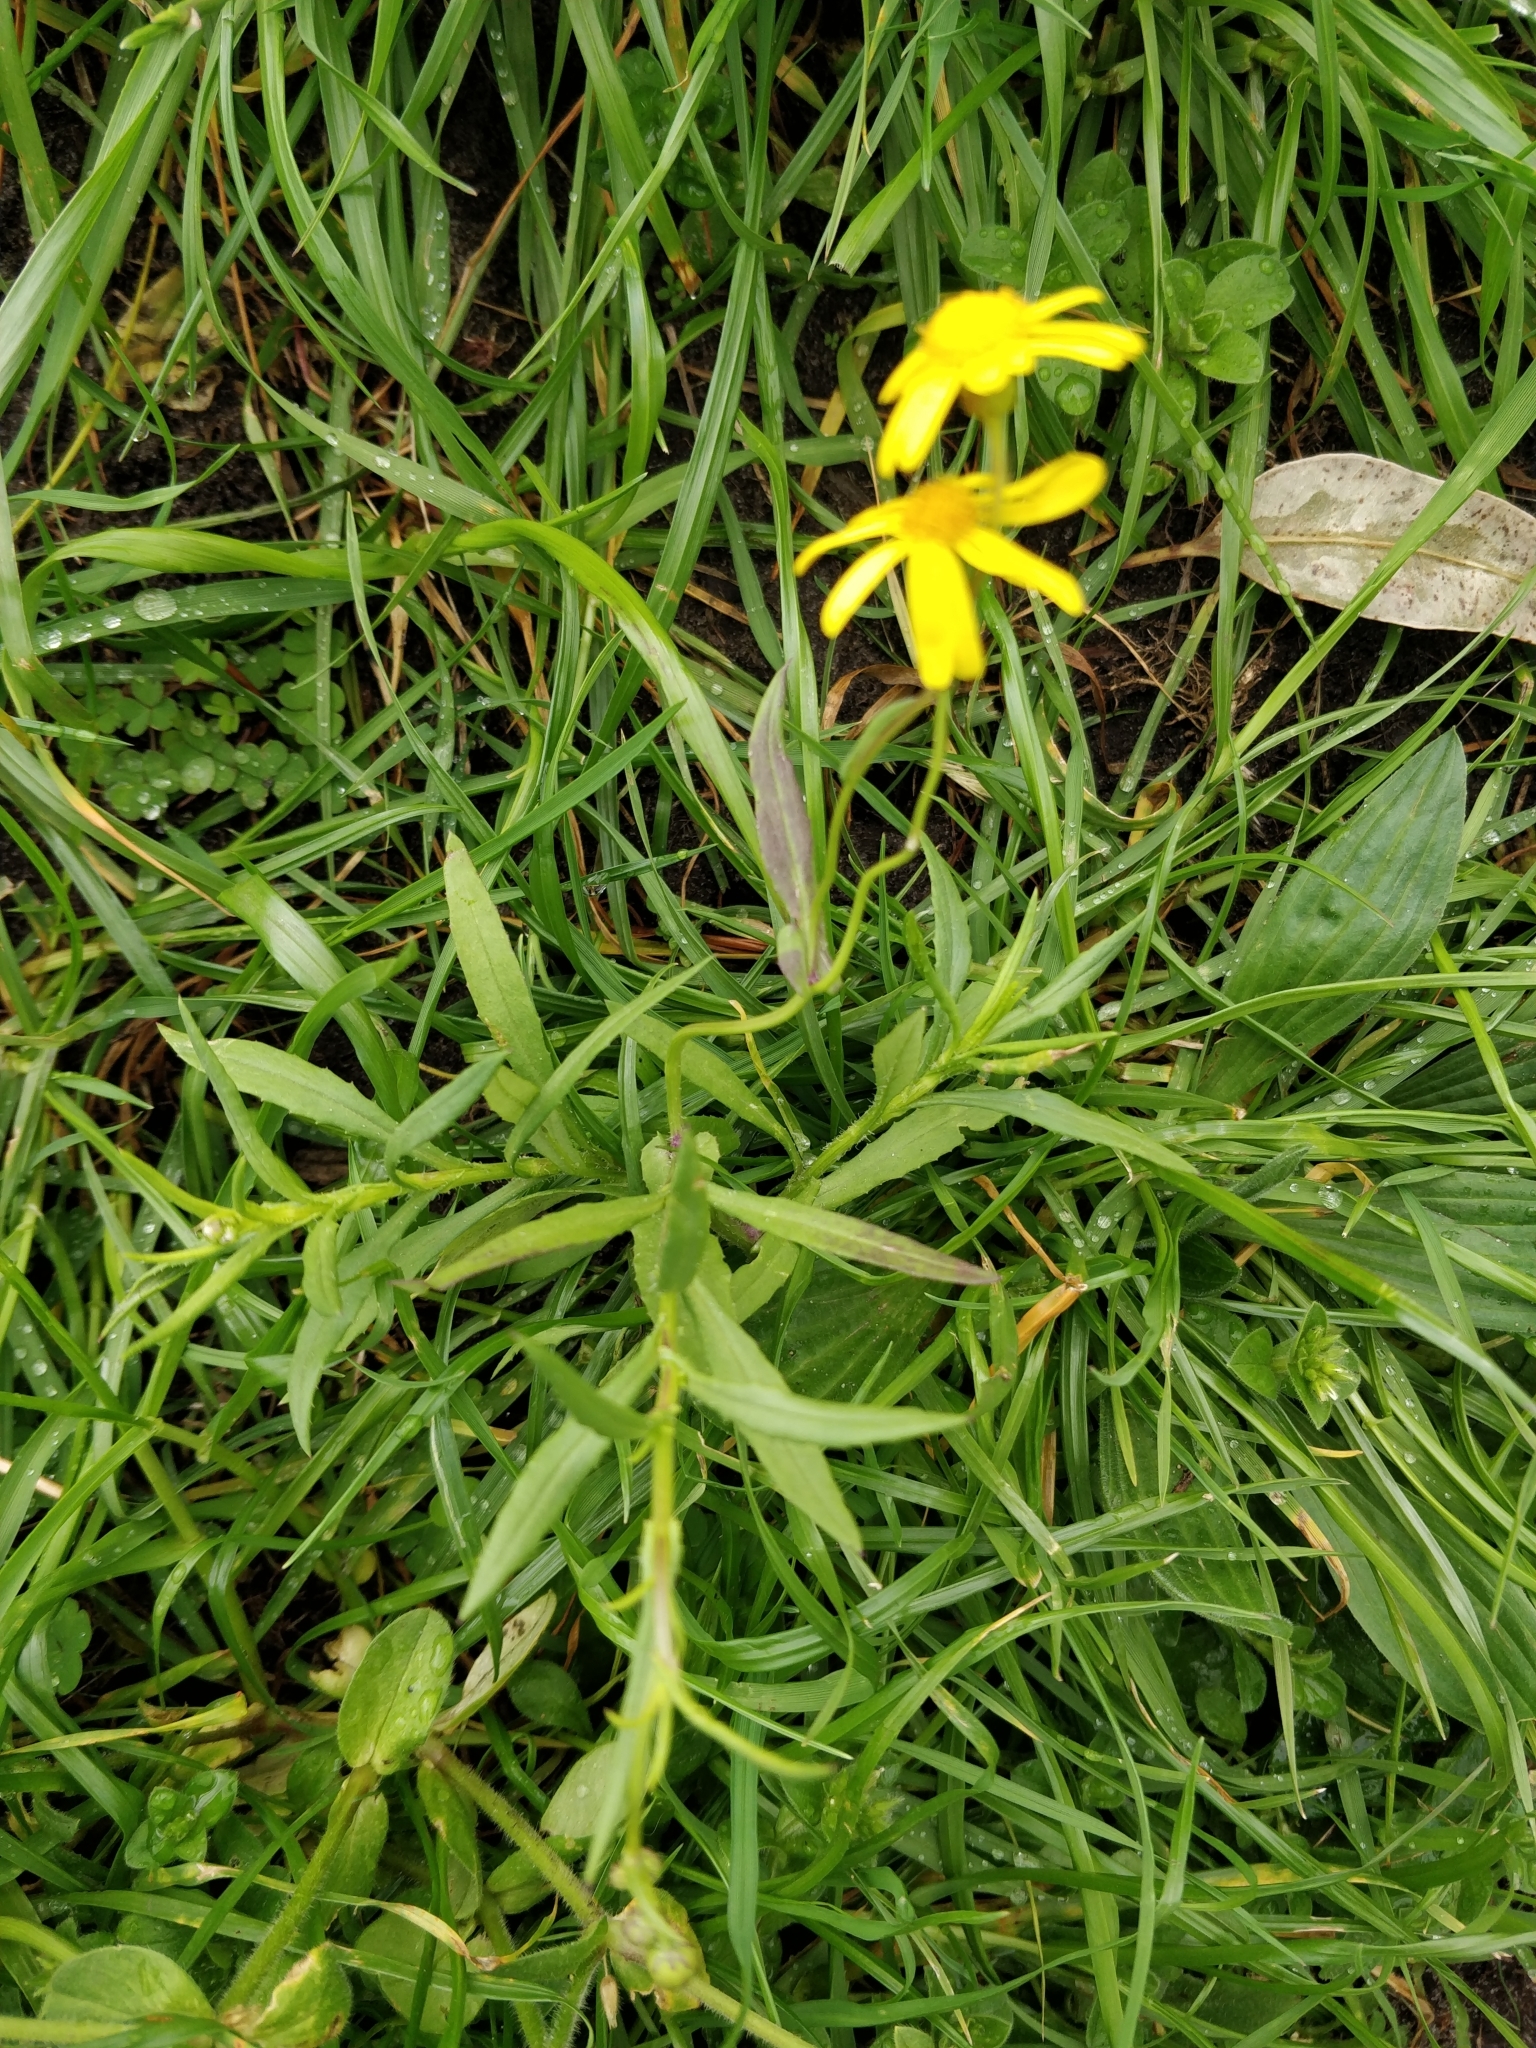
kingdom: Plantae
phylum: Tracheophyta
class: Magnoliopsida
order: Asterales
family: Asteraceae
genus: Senecio
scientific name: Senecio madagascariensis
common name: Madagascar ragwort
